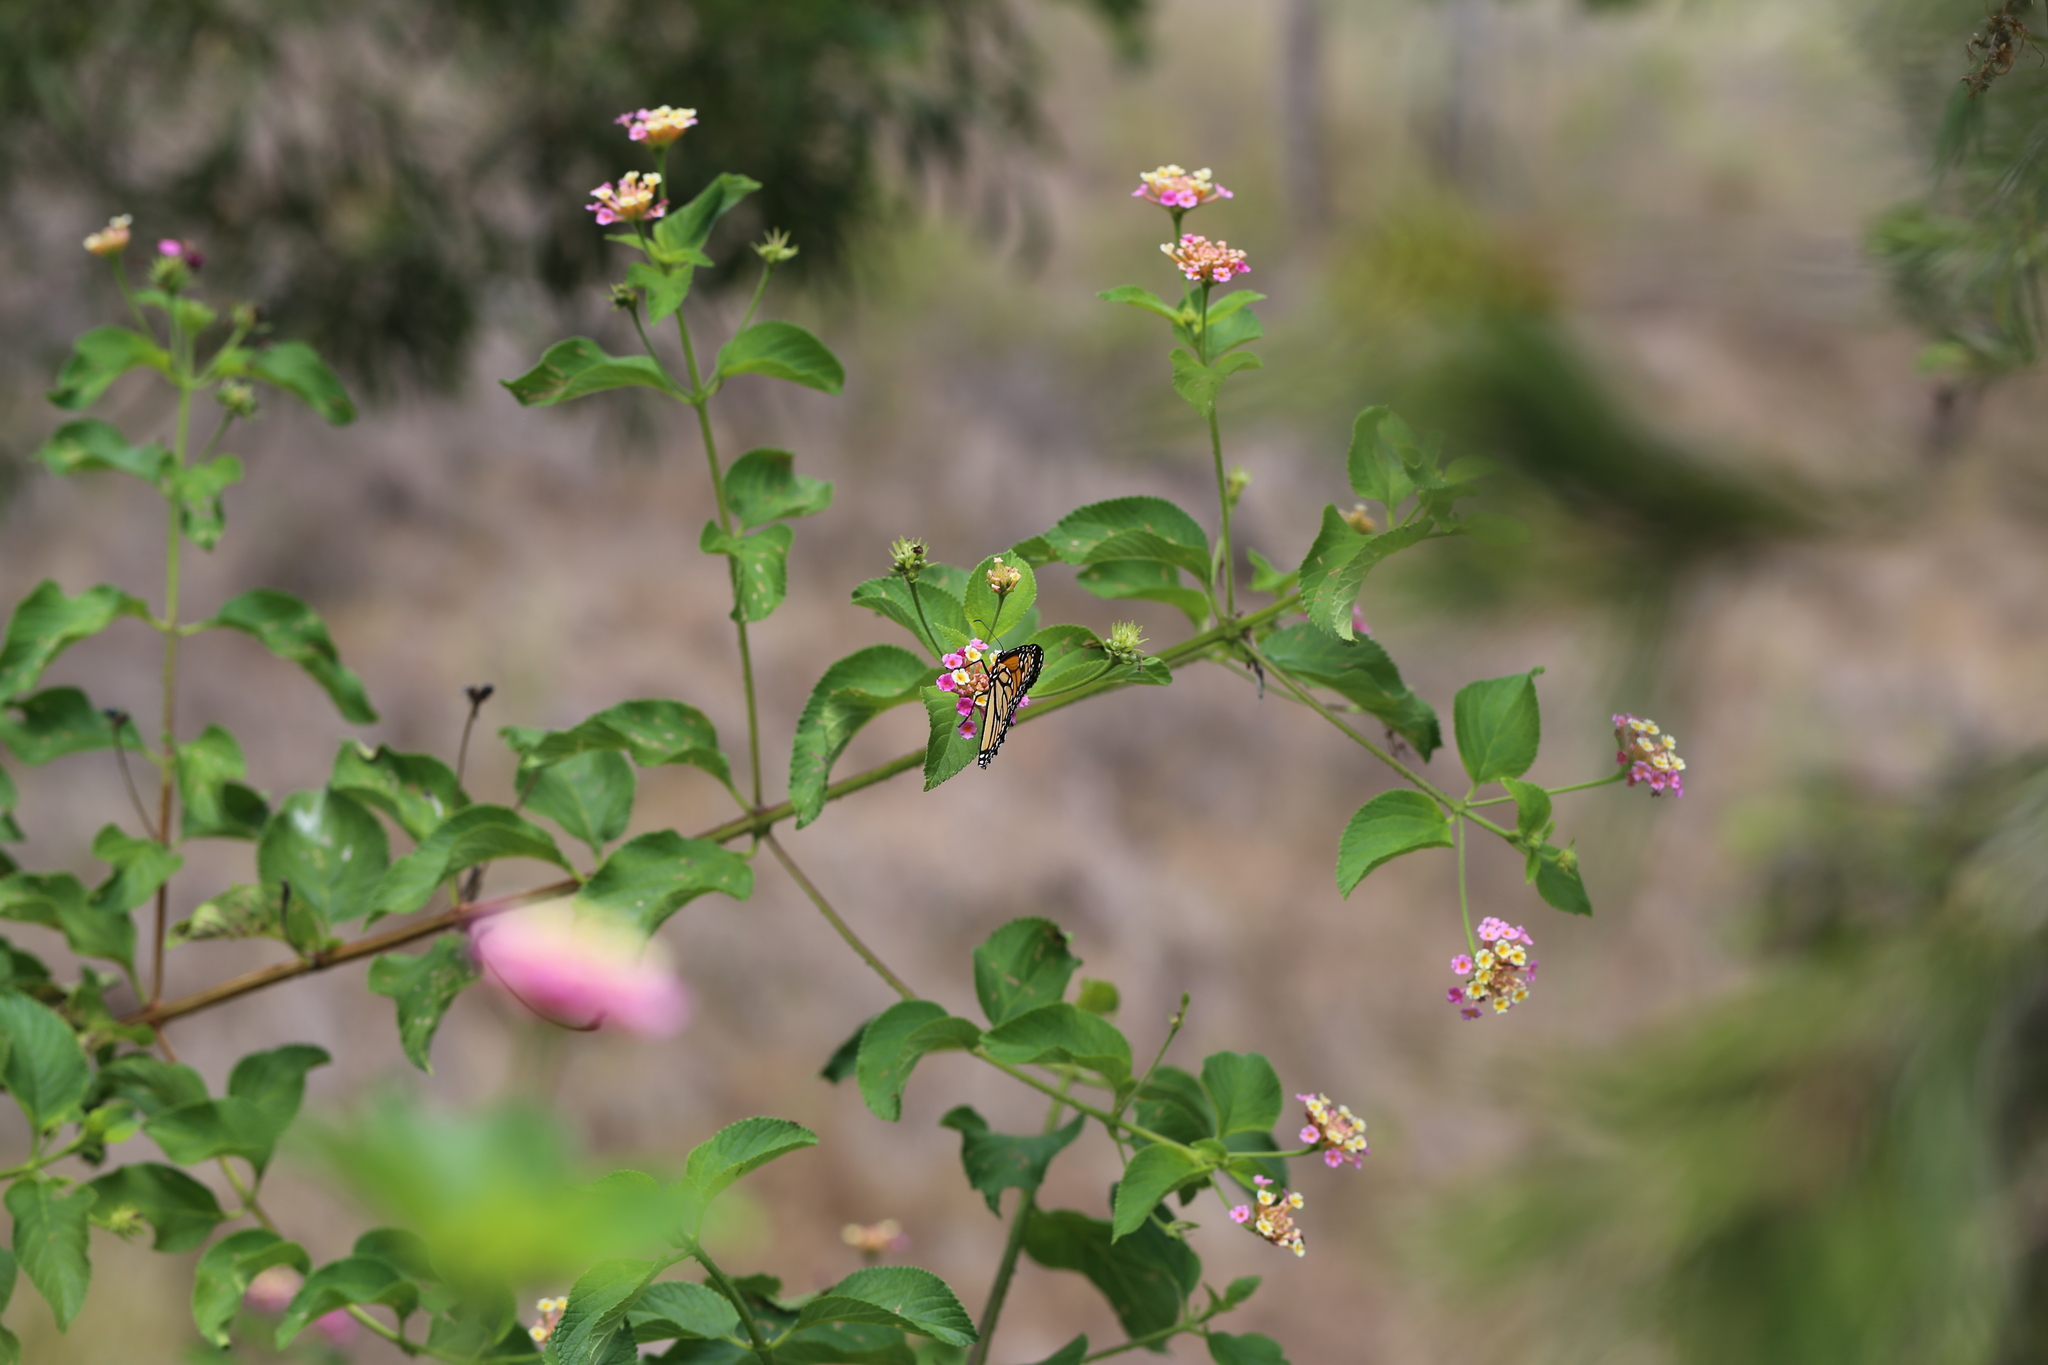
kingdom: Animalia
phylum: Arthropoda
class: Insecta
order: Lepidoptera
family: Nymphalidae
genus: Danaus
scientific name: Danaus plexippus
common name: Monarch
